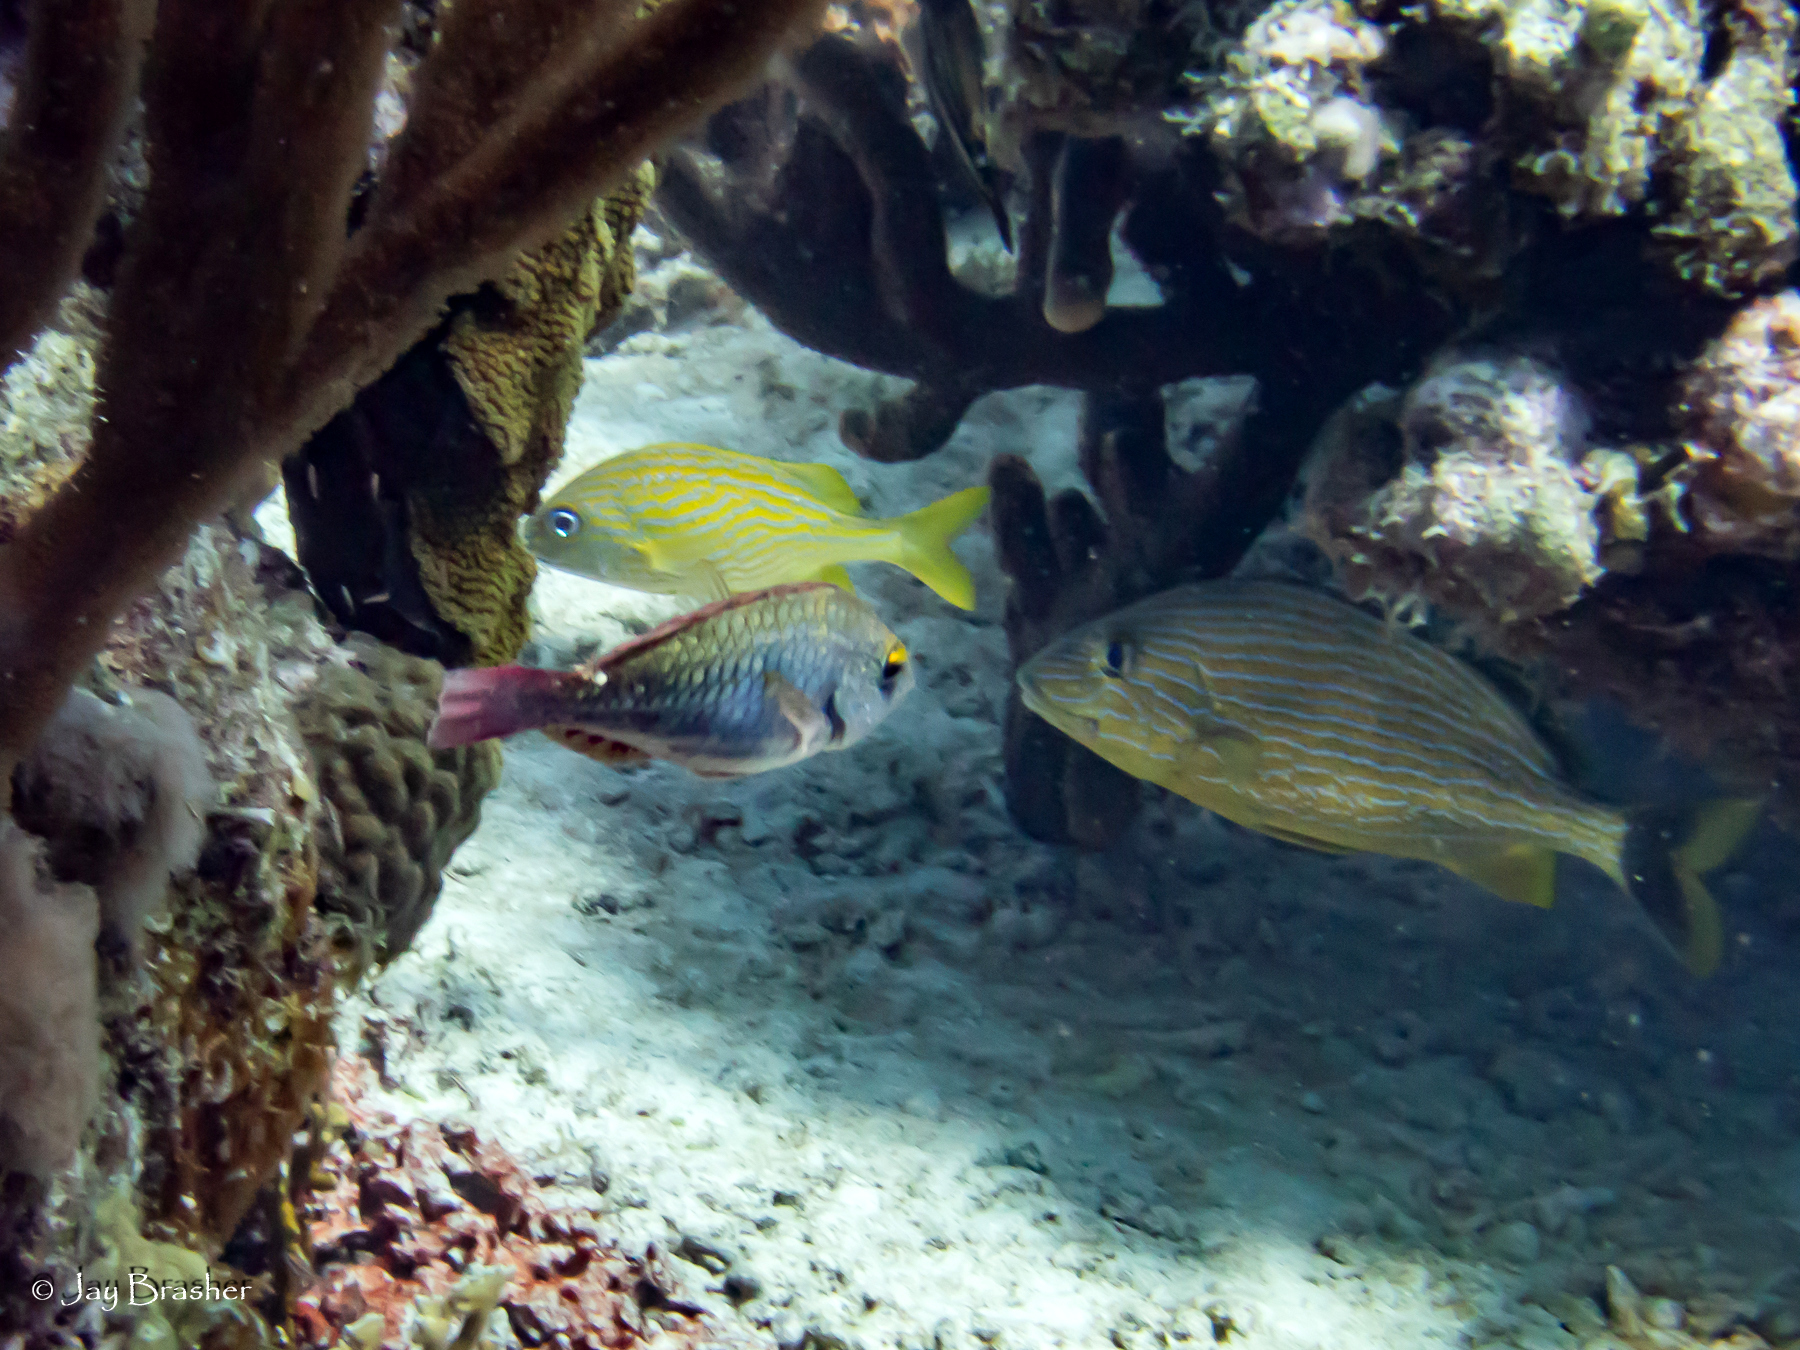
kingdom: Animalia
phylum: Chordata
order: Perciformes
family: Haemulidae
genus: Haemulon
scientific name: Haemulon flavolineatum
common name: French grunt
